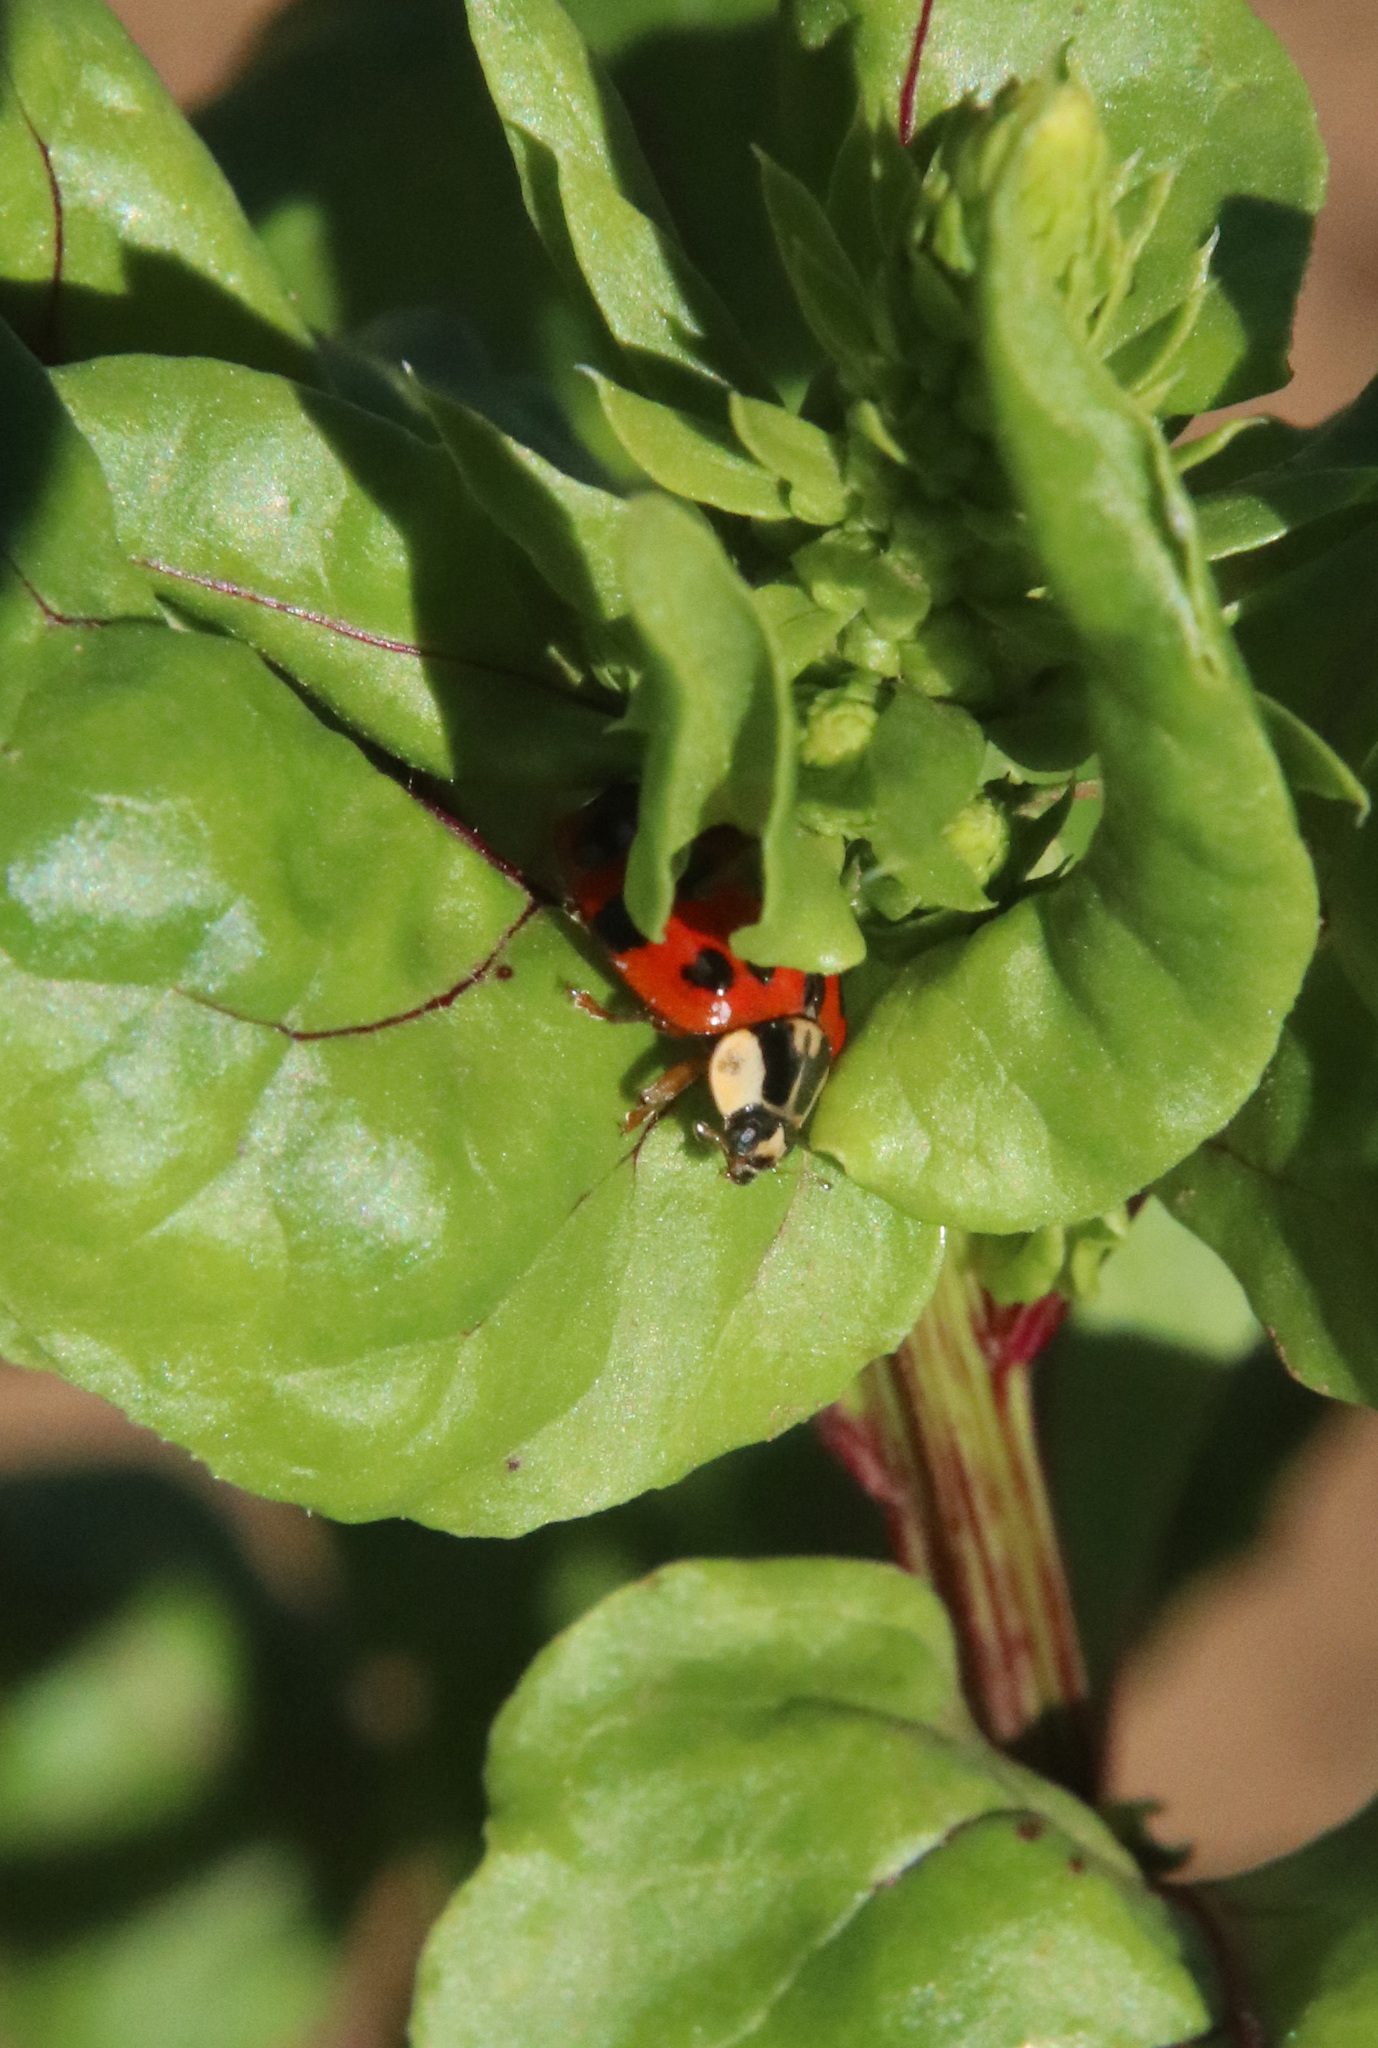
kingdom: Animalia
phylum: Arthropoda
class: Insecta
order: Coleoptera
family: Coccinellidae
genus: Harmonia
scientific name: Harmonia axyridis
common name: Harlequin ladybird
